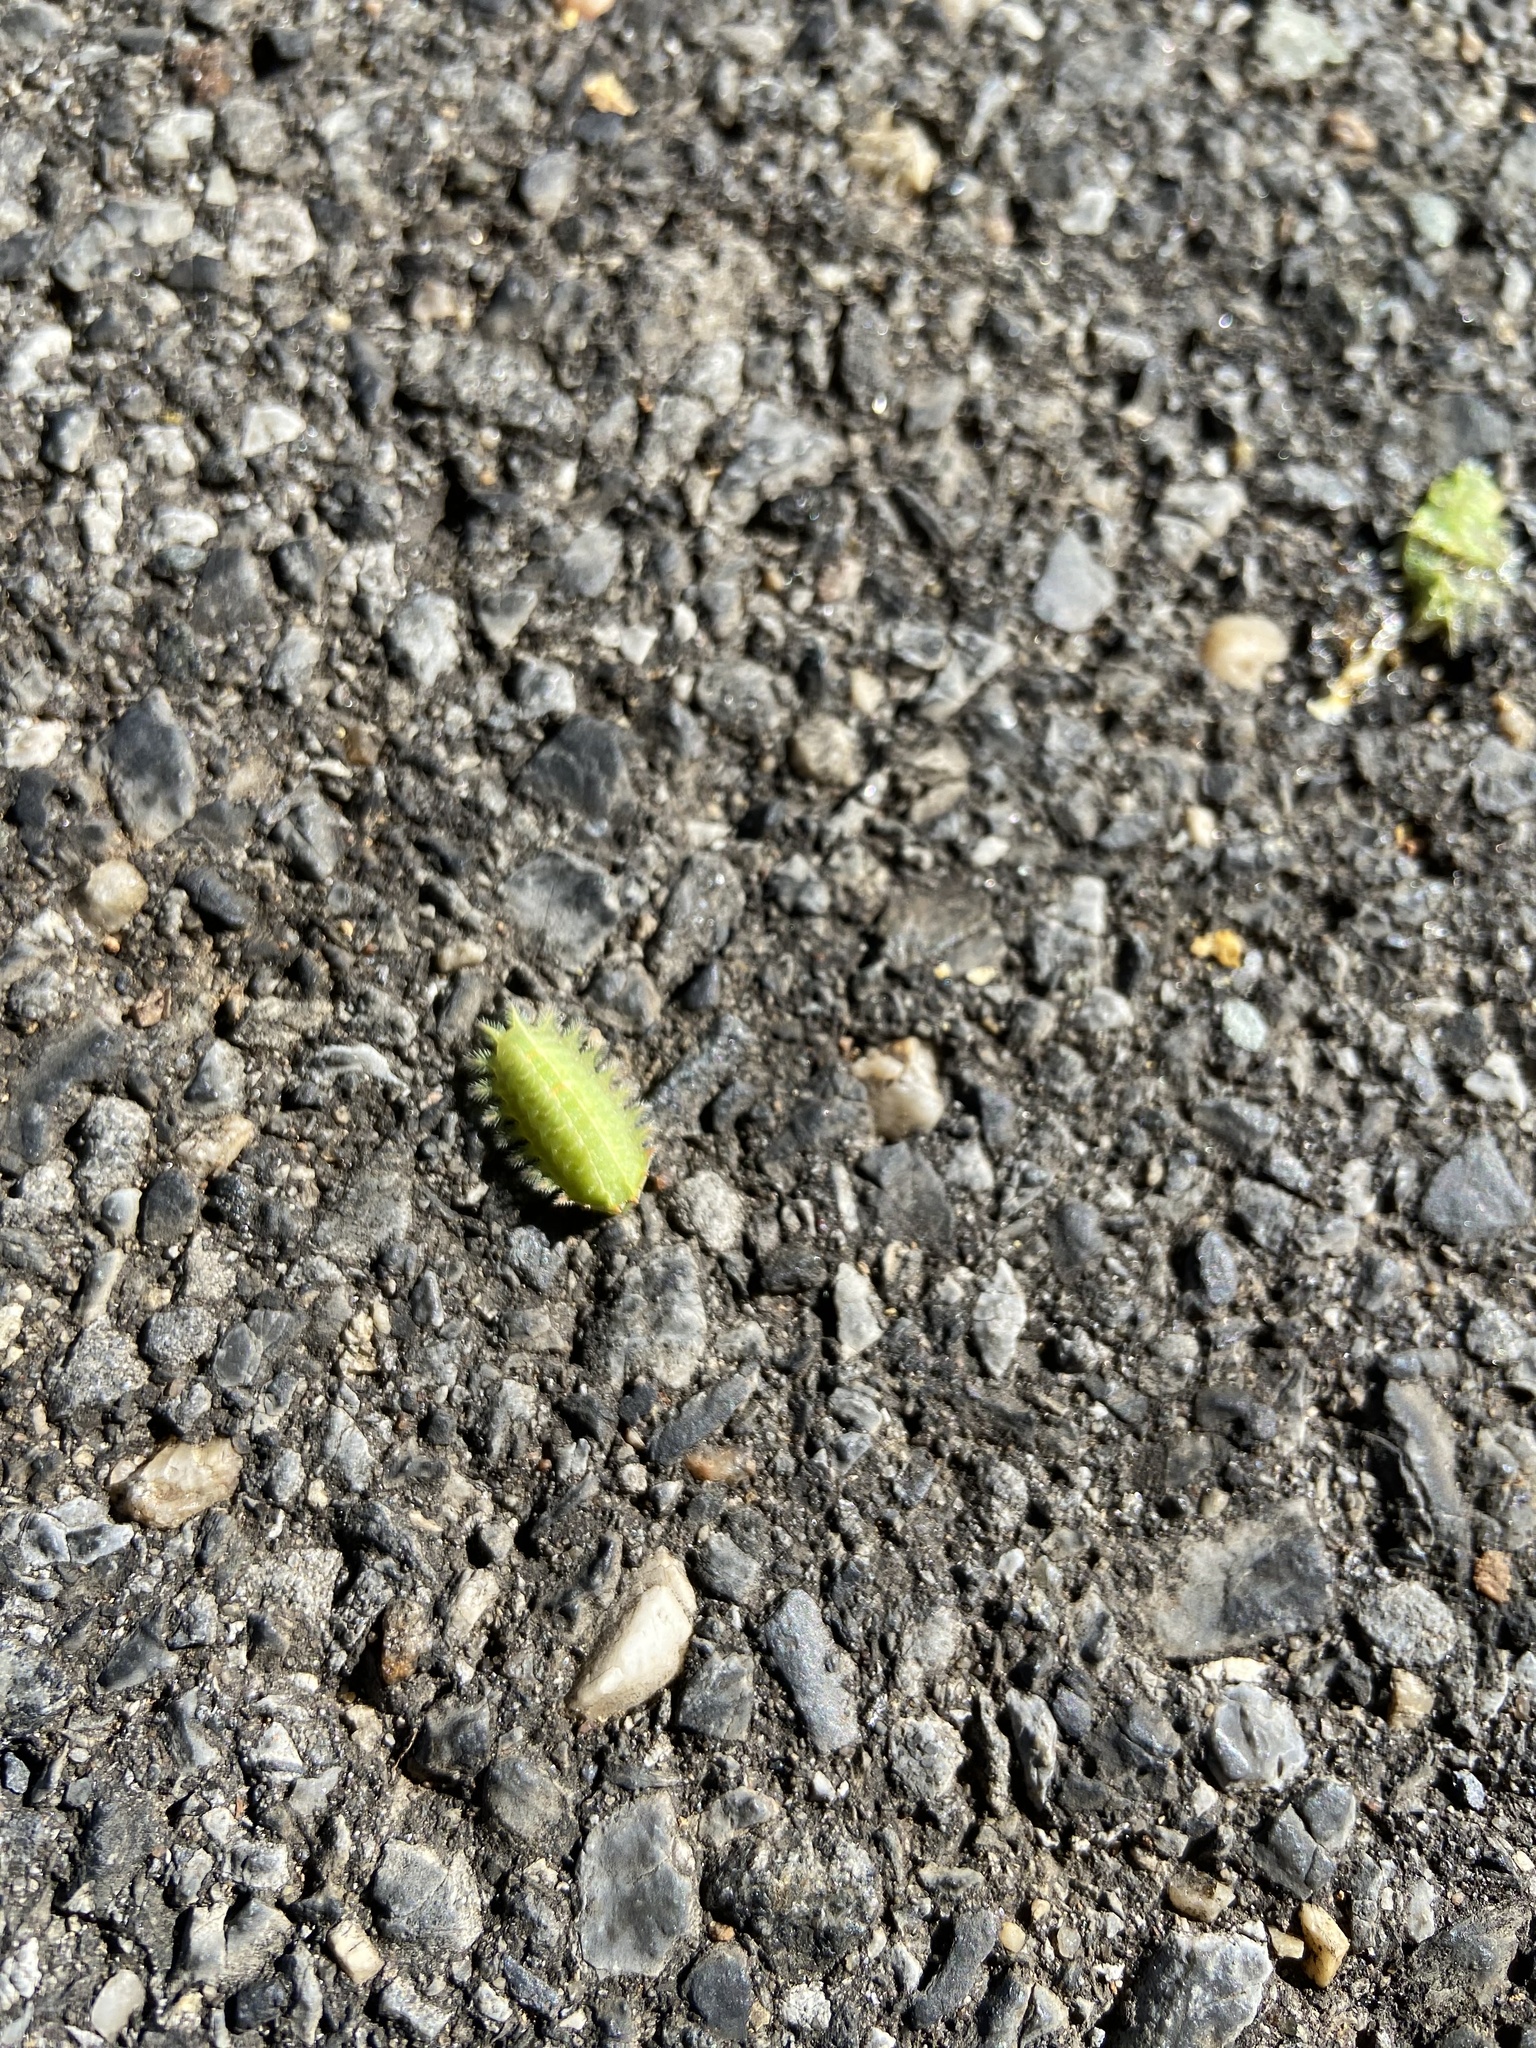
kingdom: Animalia
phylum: Arthropoda
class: Insecta
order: Lepidoptera
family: Limacodidae
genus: Isa
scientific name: Isa textula
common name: Crowned slug moth
